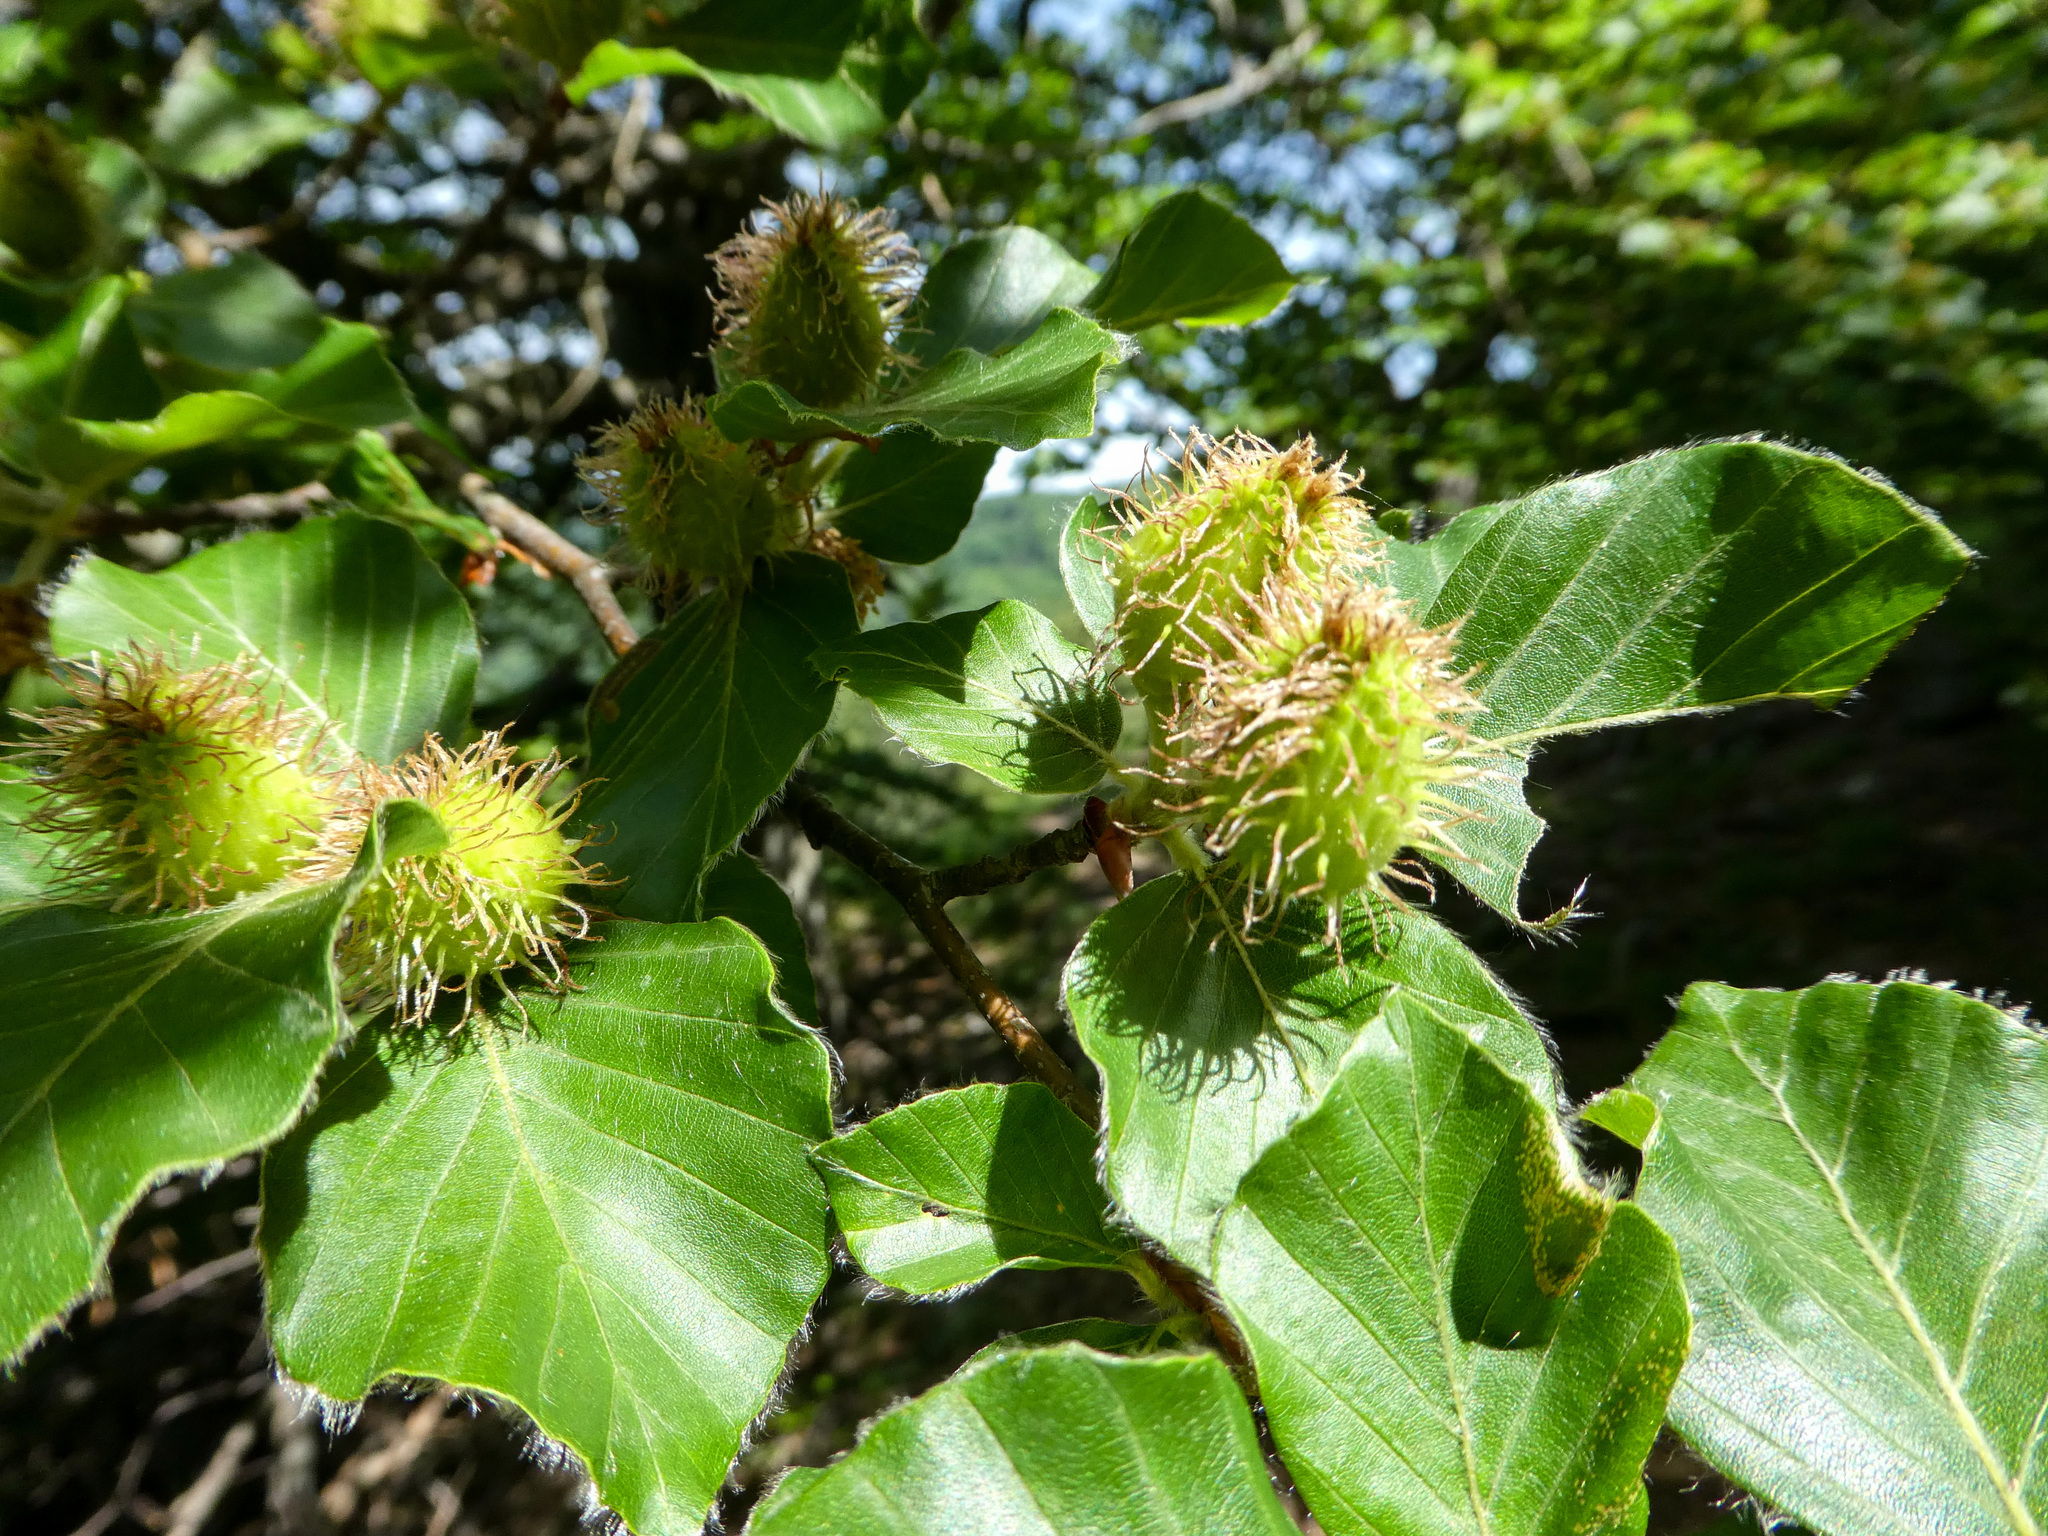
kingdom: Plantae
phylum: Tracheophyta
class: Magnoliopsida
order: Fagales
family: Fagaceae
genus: Fagus
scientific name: Fagus sylvatica
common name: Beech
